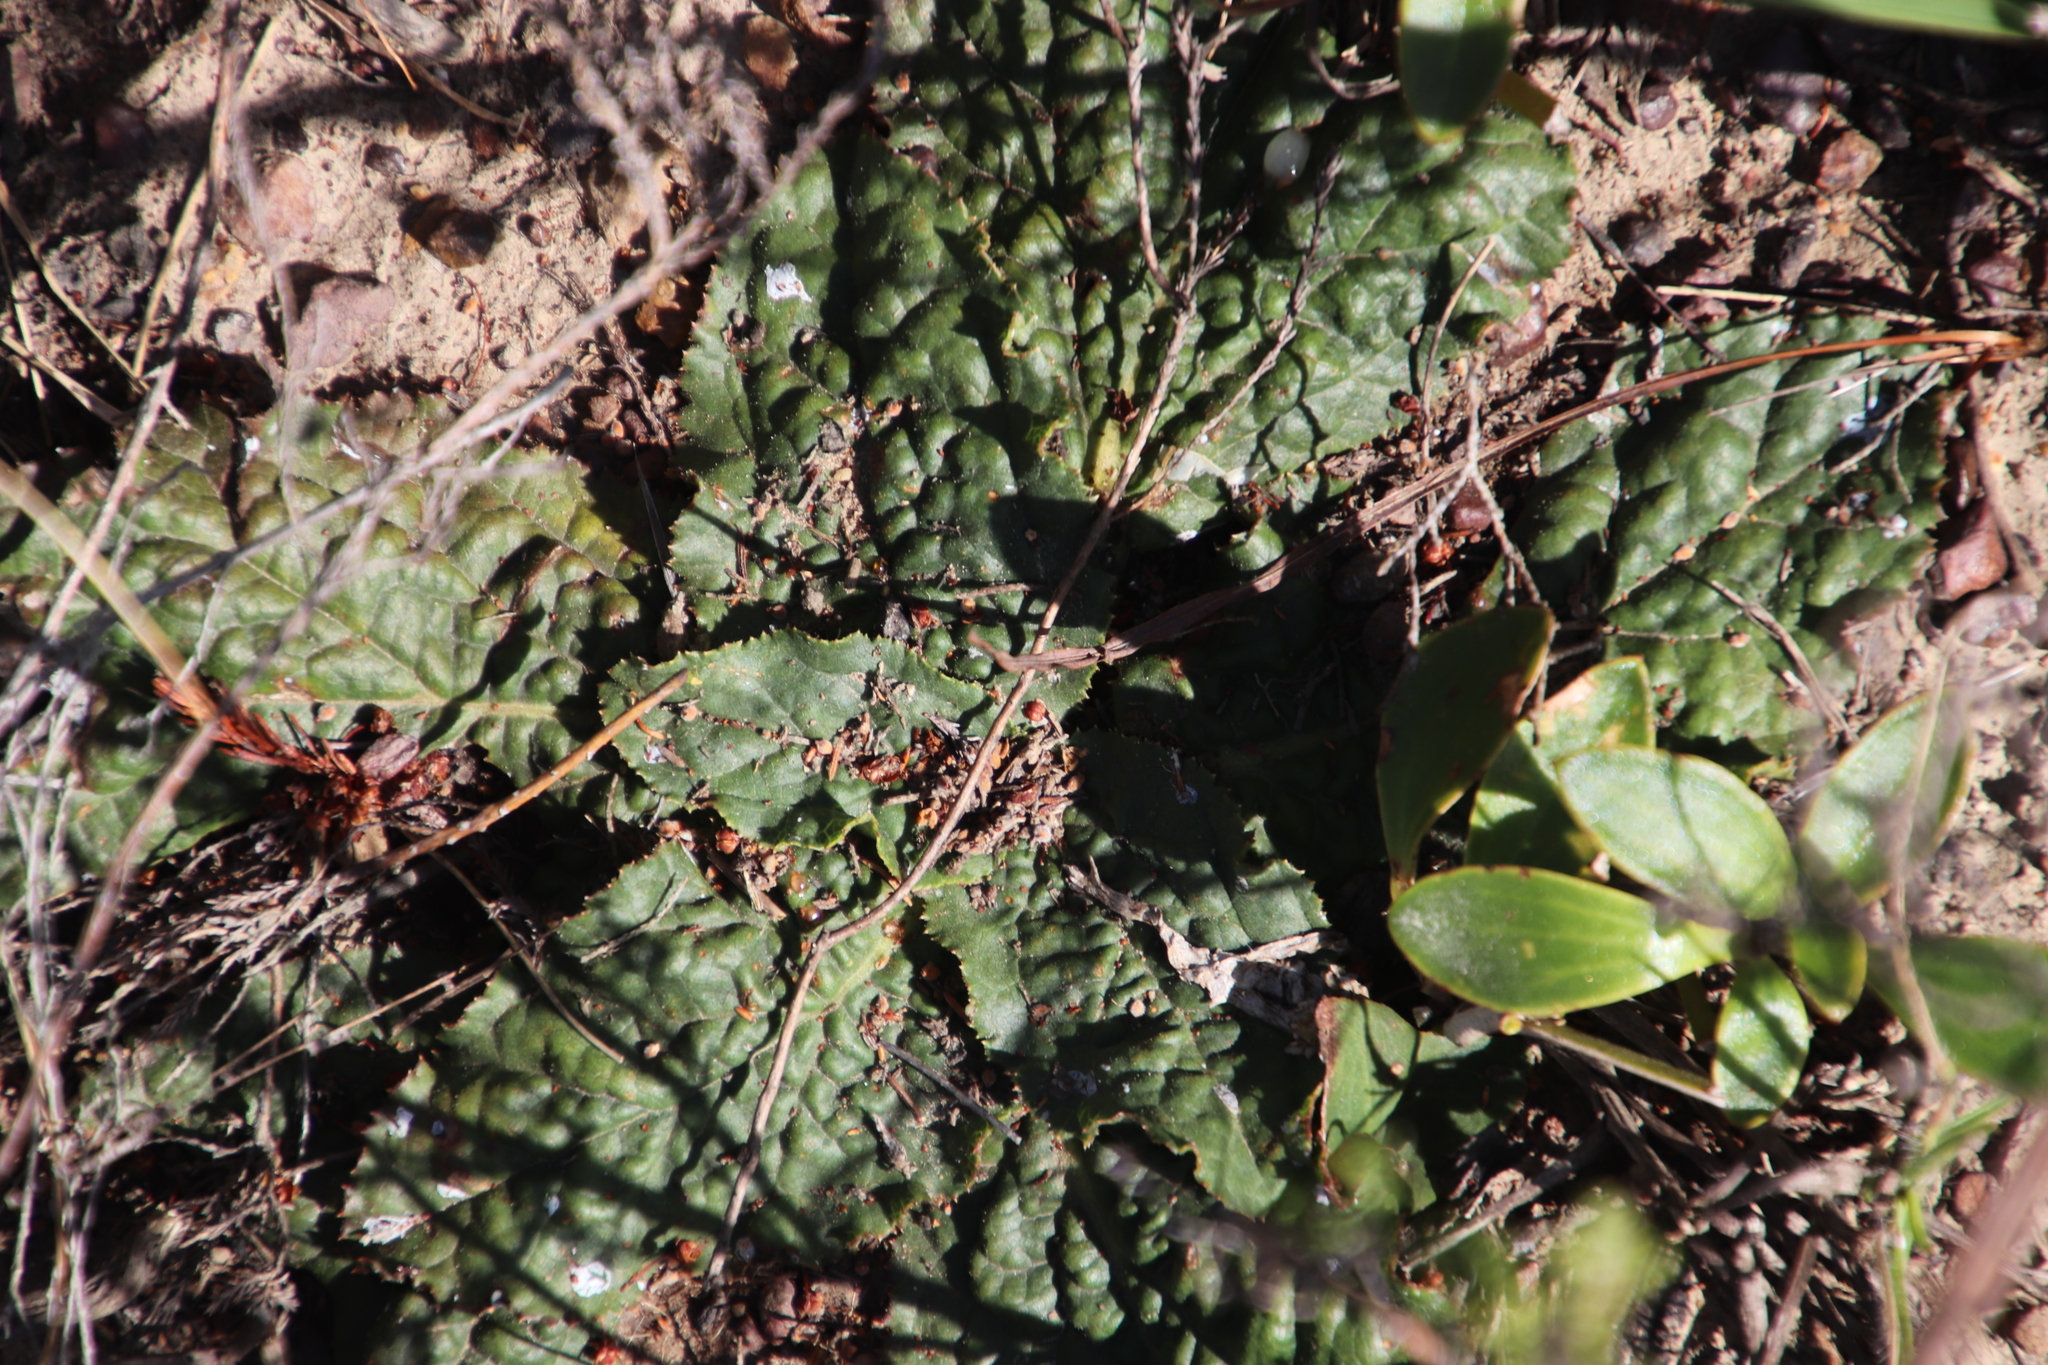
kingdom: Plantae
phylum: Tracheophyta
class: Magnoliopsida
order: Apiales
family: Apiaceae
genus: Lichtensteinia
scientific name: Lichtensteinia latifolia
